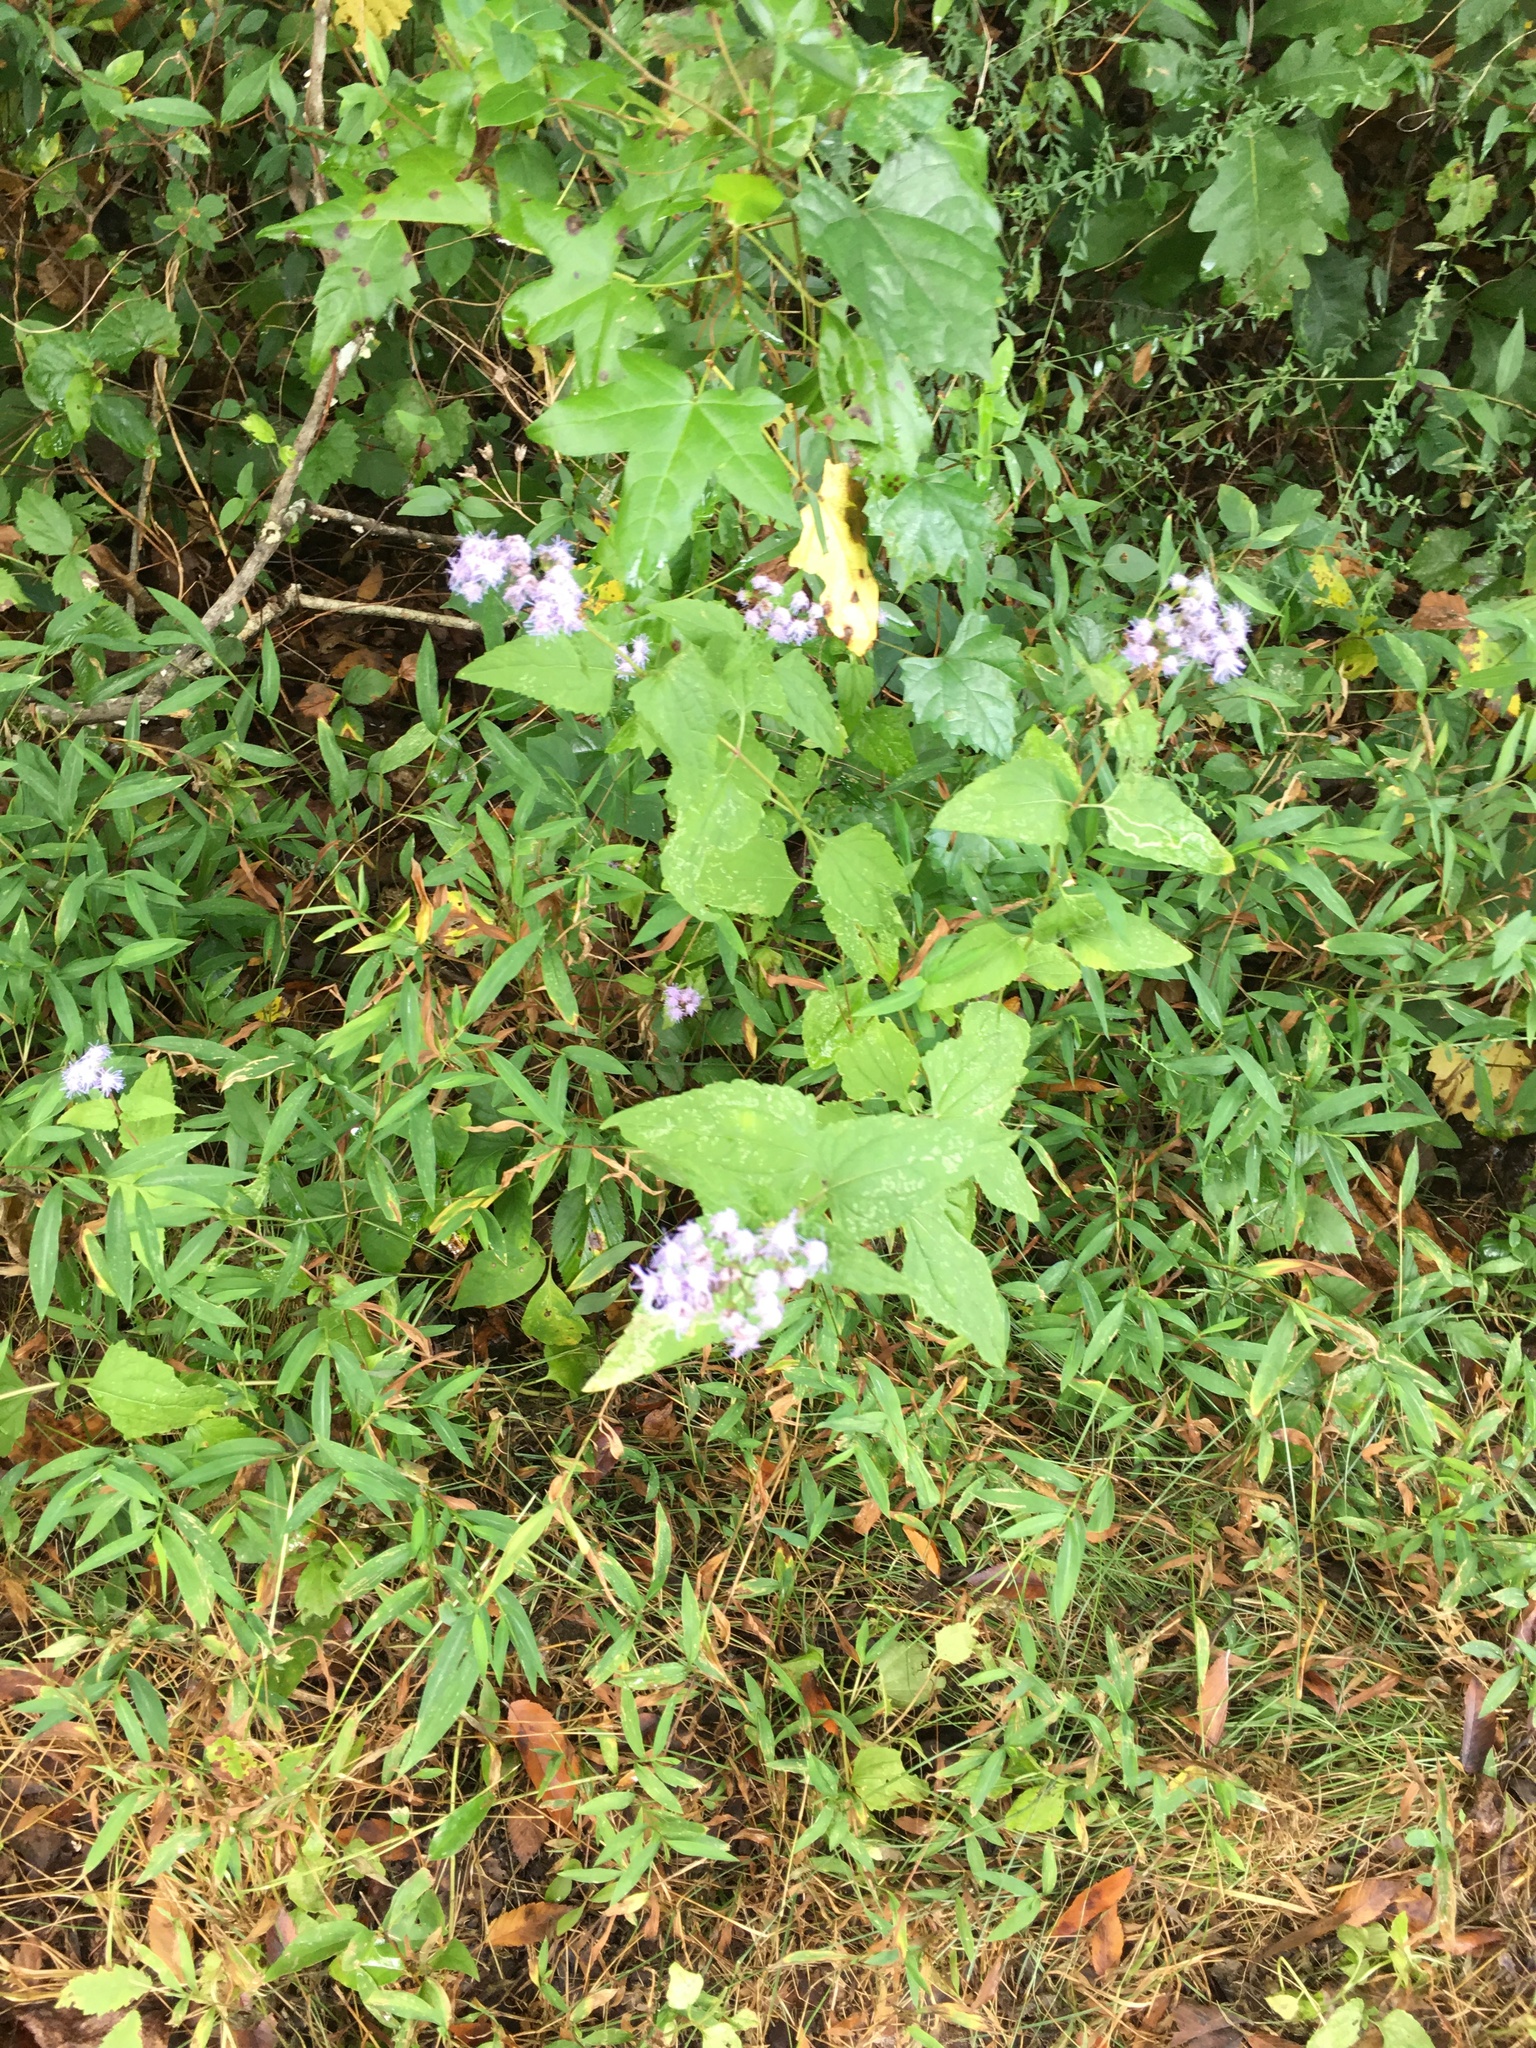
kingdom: Plantae
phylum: Tracheophyta
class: Magnoliopsida
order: Asterales
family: Asteraceae
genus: Conoclinium
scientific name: Conoclinium coelestinum
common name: Blue mistflower
